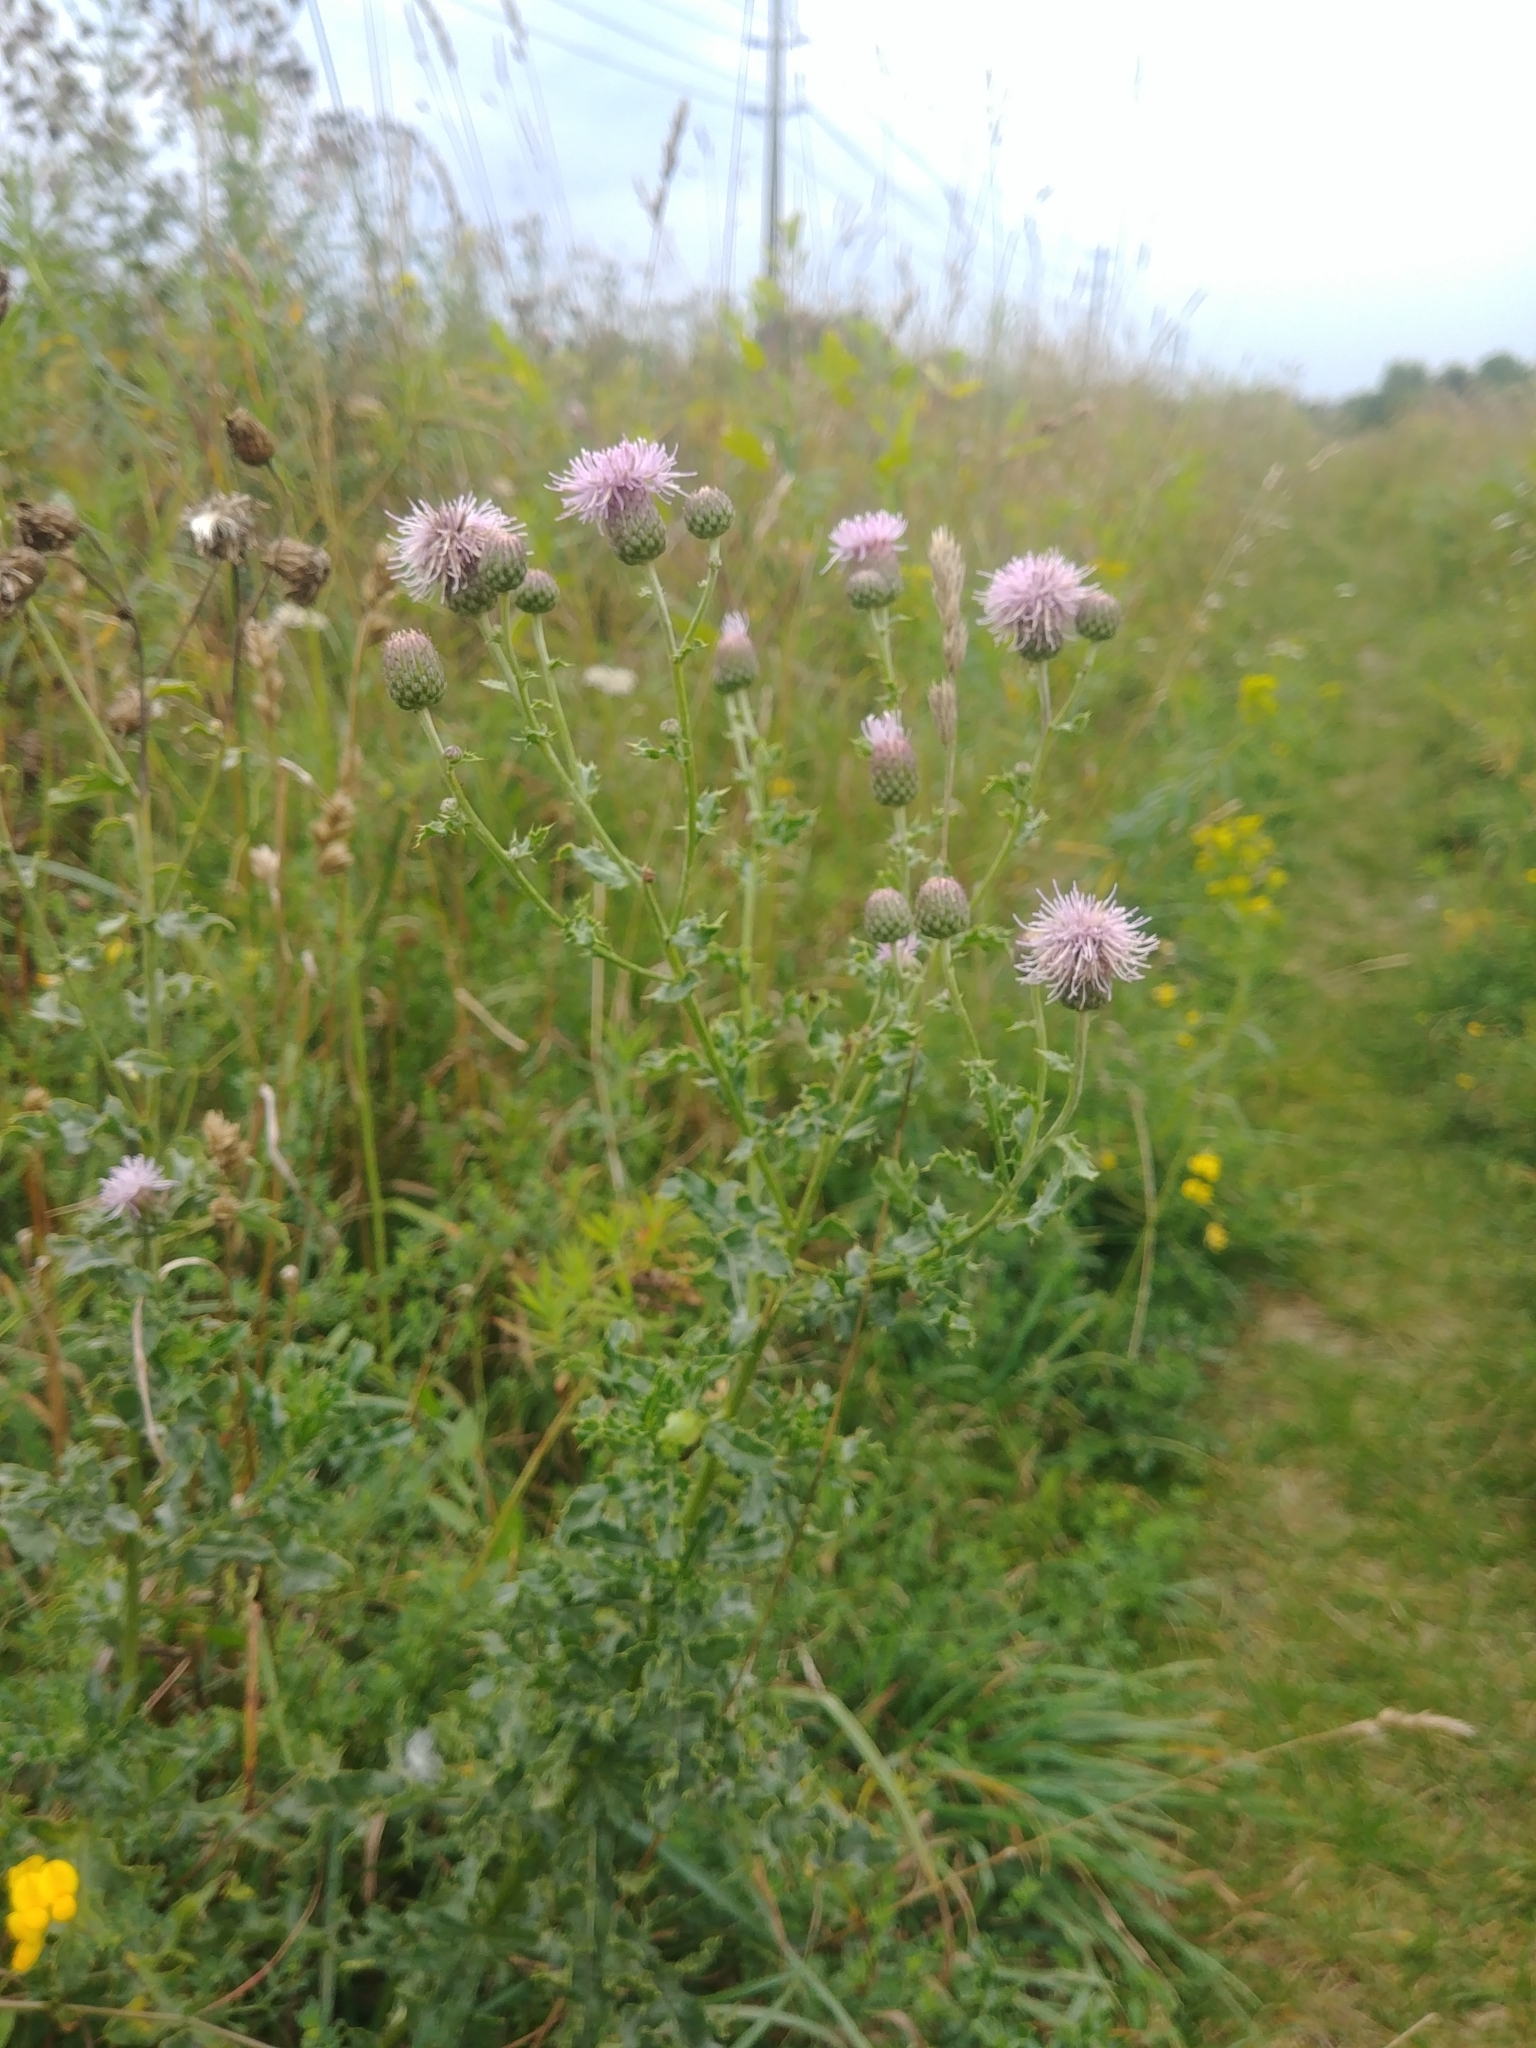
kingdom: Plantae
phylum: Tracheophyta
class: Magnoliopsida
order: Asterales
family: Asteraceae
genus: Cirsium
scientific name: Cirsium arvense
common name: Creeping thistle
